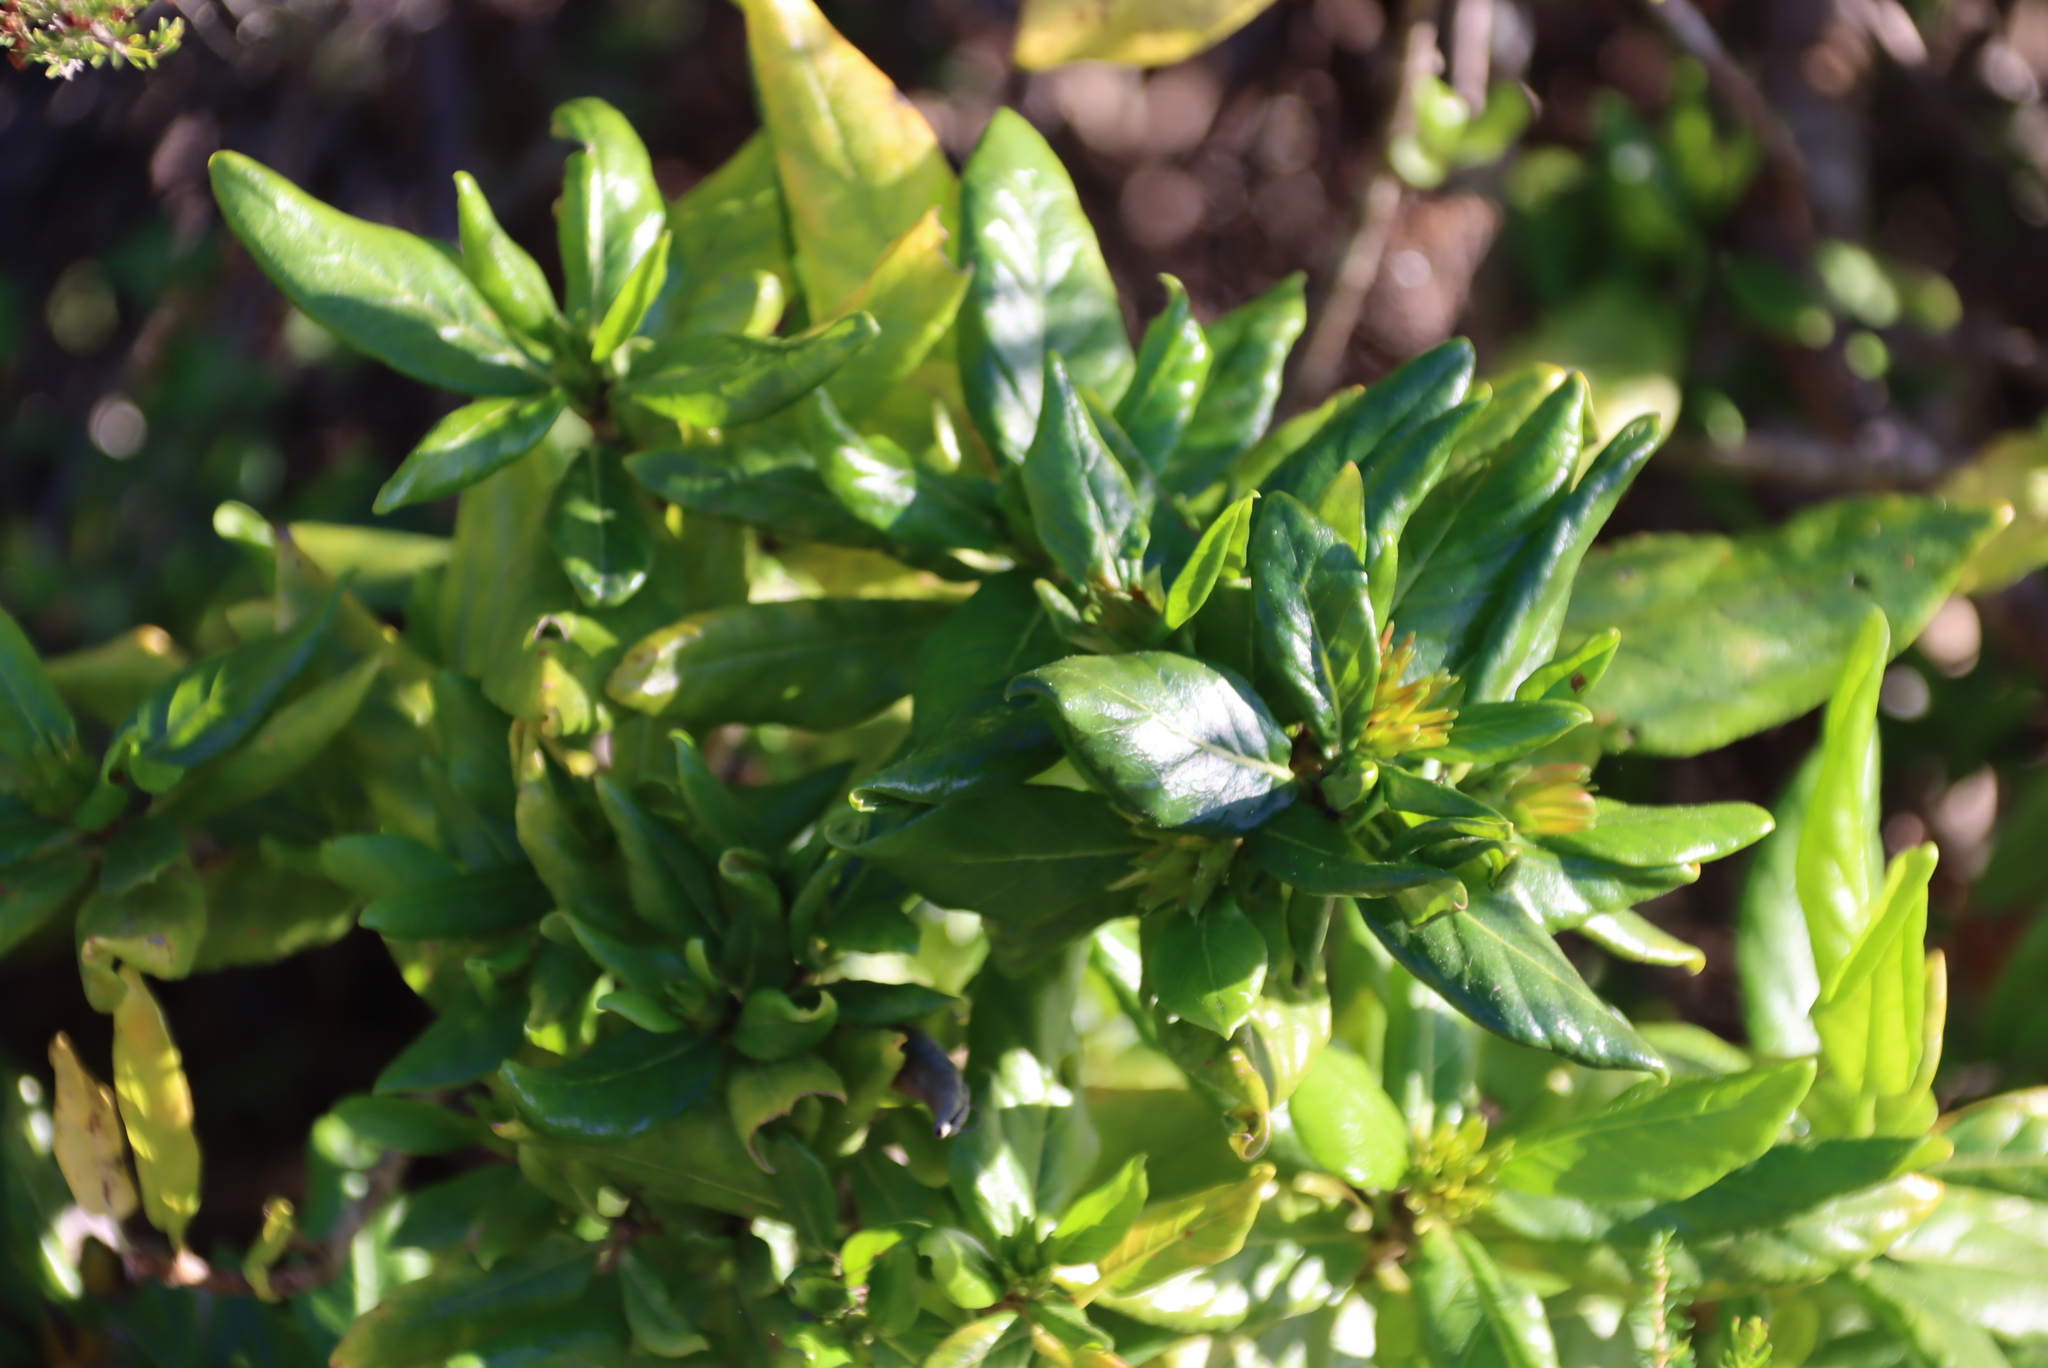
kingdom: Plantae
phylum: Tracheophyta
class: Magnoliopsida
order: Gentianales
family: Rubiaceae
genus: Burchellia
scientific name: Burchellia bubalina
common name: Wild pomegranate
